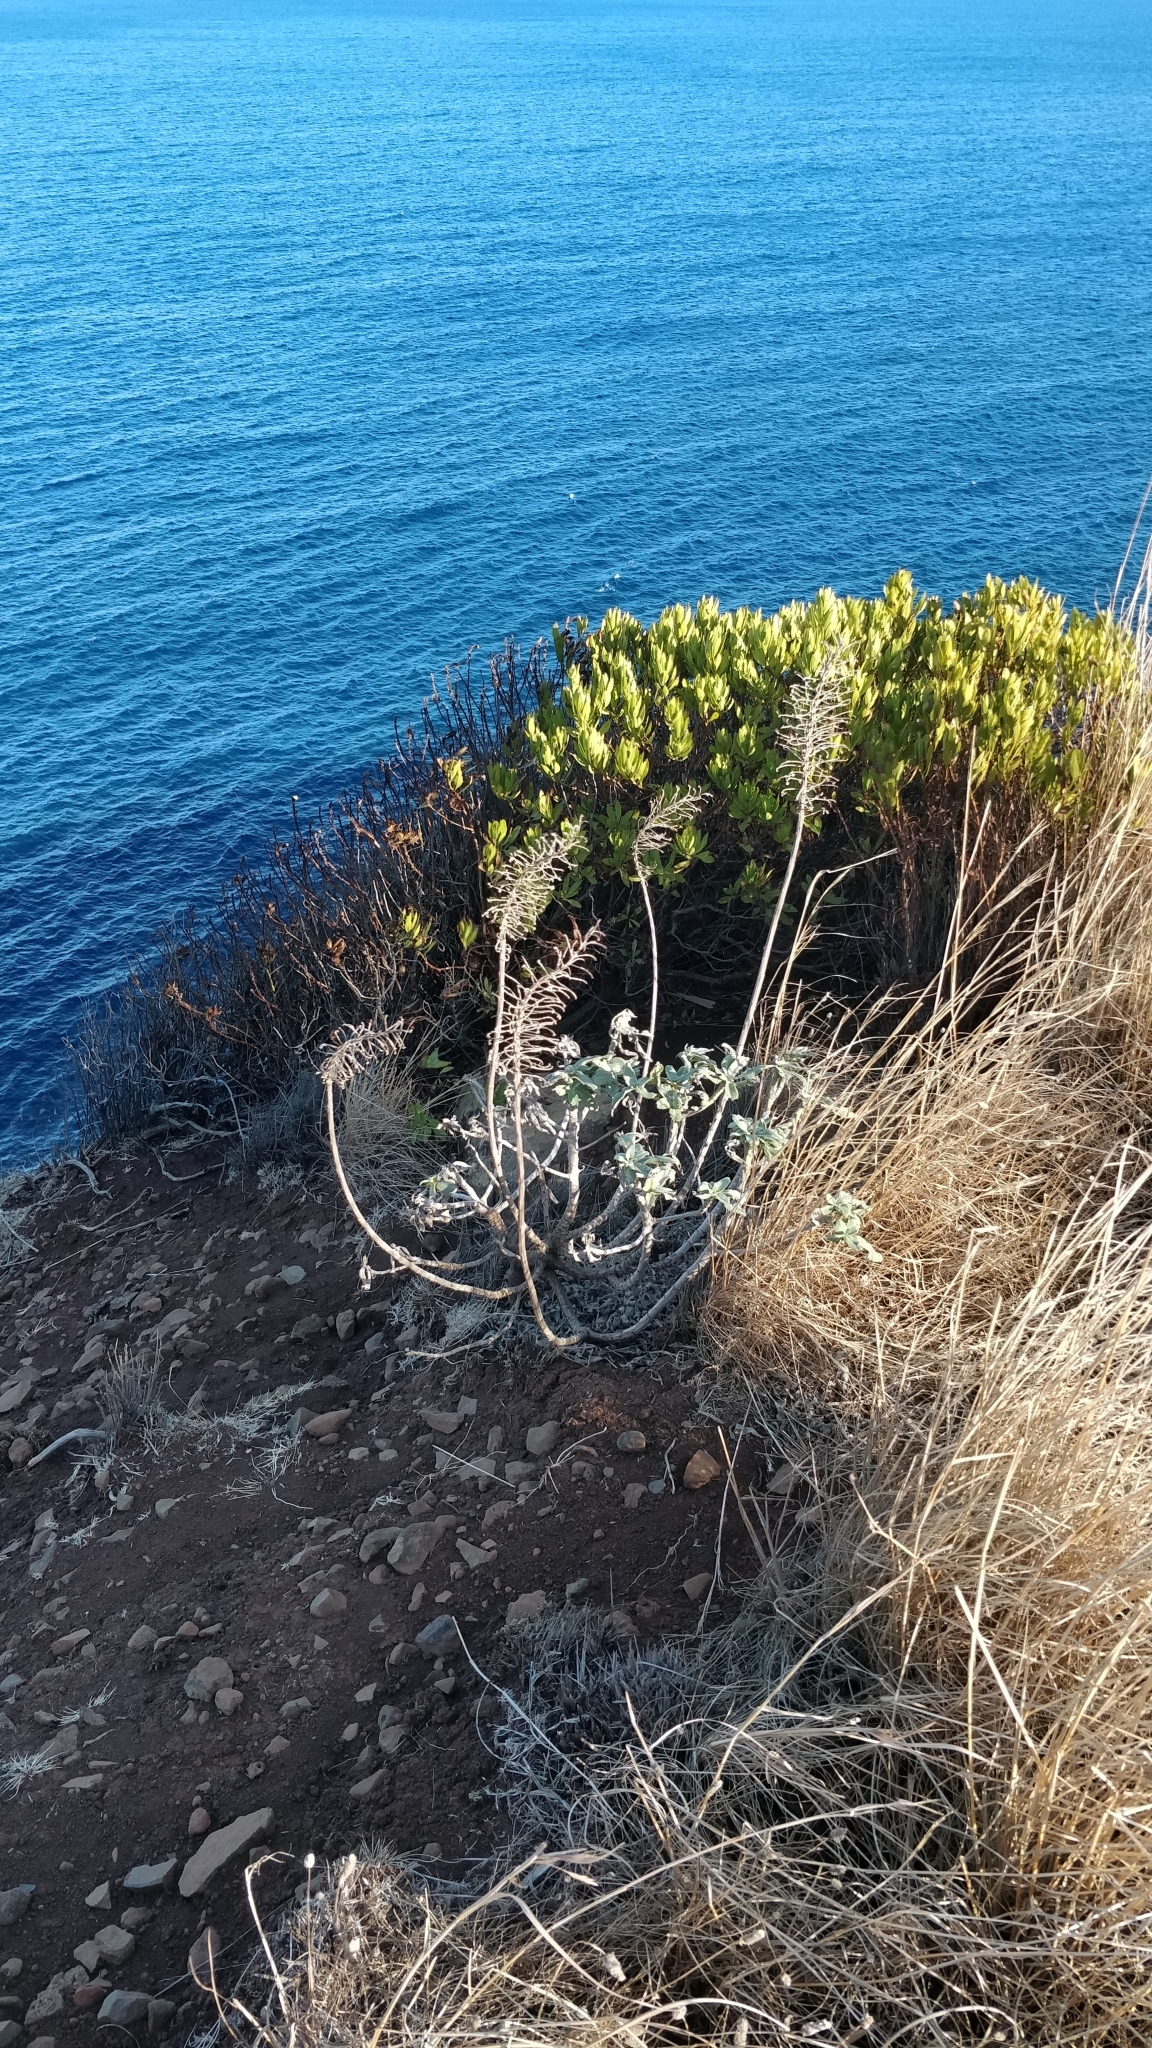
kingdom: Plantae
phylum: Tracheophyta
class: Magnoliopsida
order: Boraginales
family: Boraginaceae
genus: Echium
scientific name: Echium nervosum
